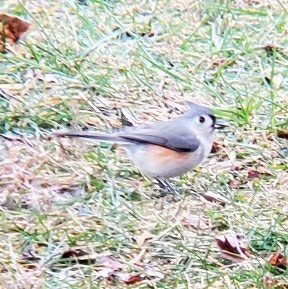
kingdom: Animalia
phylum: Chordata
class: Aves
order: Passeriformes
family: Paridae
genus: Baeolophus
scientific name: Baeolophus bicolor
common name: Tufted titmouse
